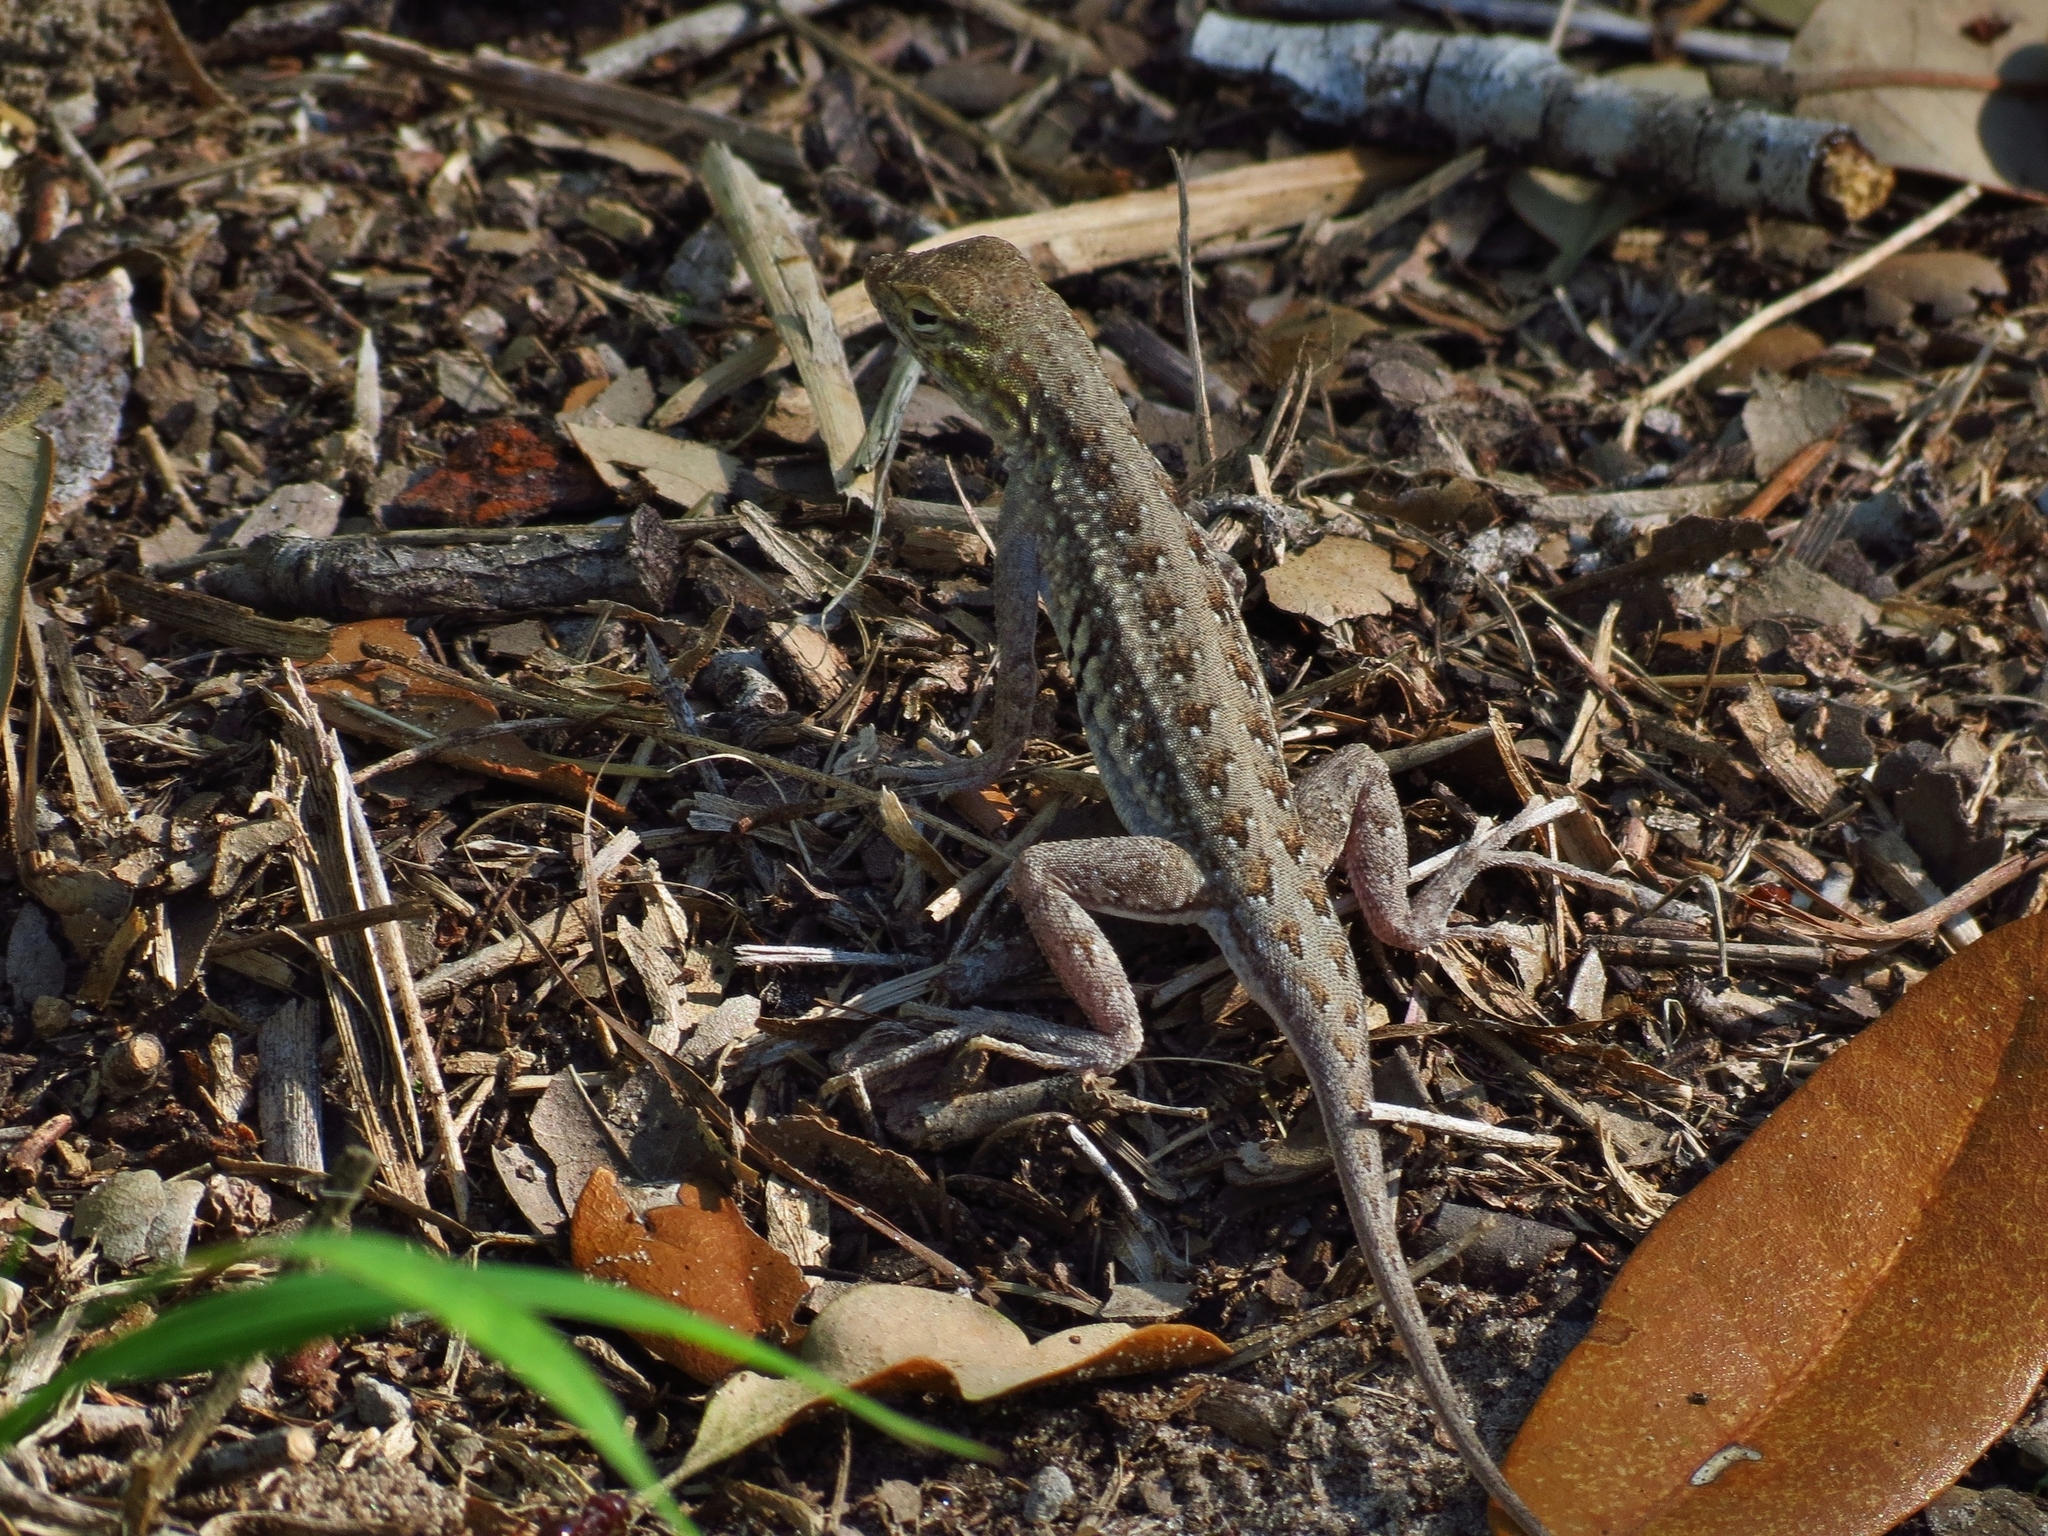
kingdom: Animalia
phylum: Chordata
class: Squamata
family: Phrynosomatidae
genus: Holbrookia
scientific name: Holbrookia propinqua
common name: Keeled earless lizard
